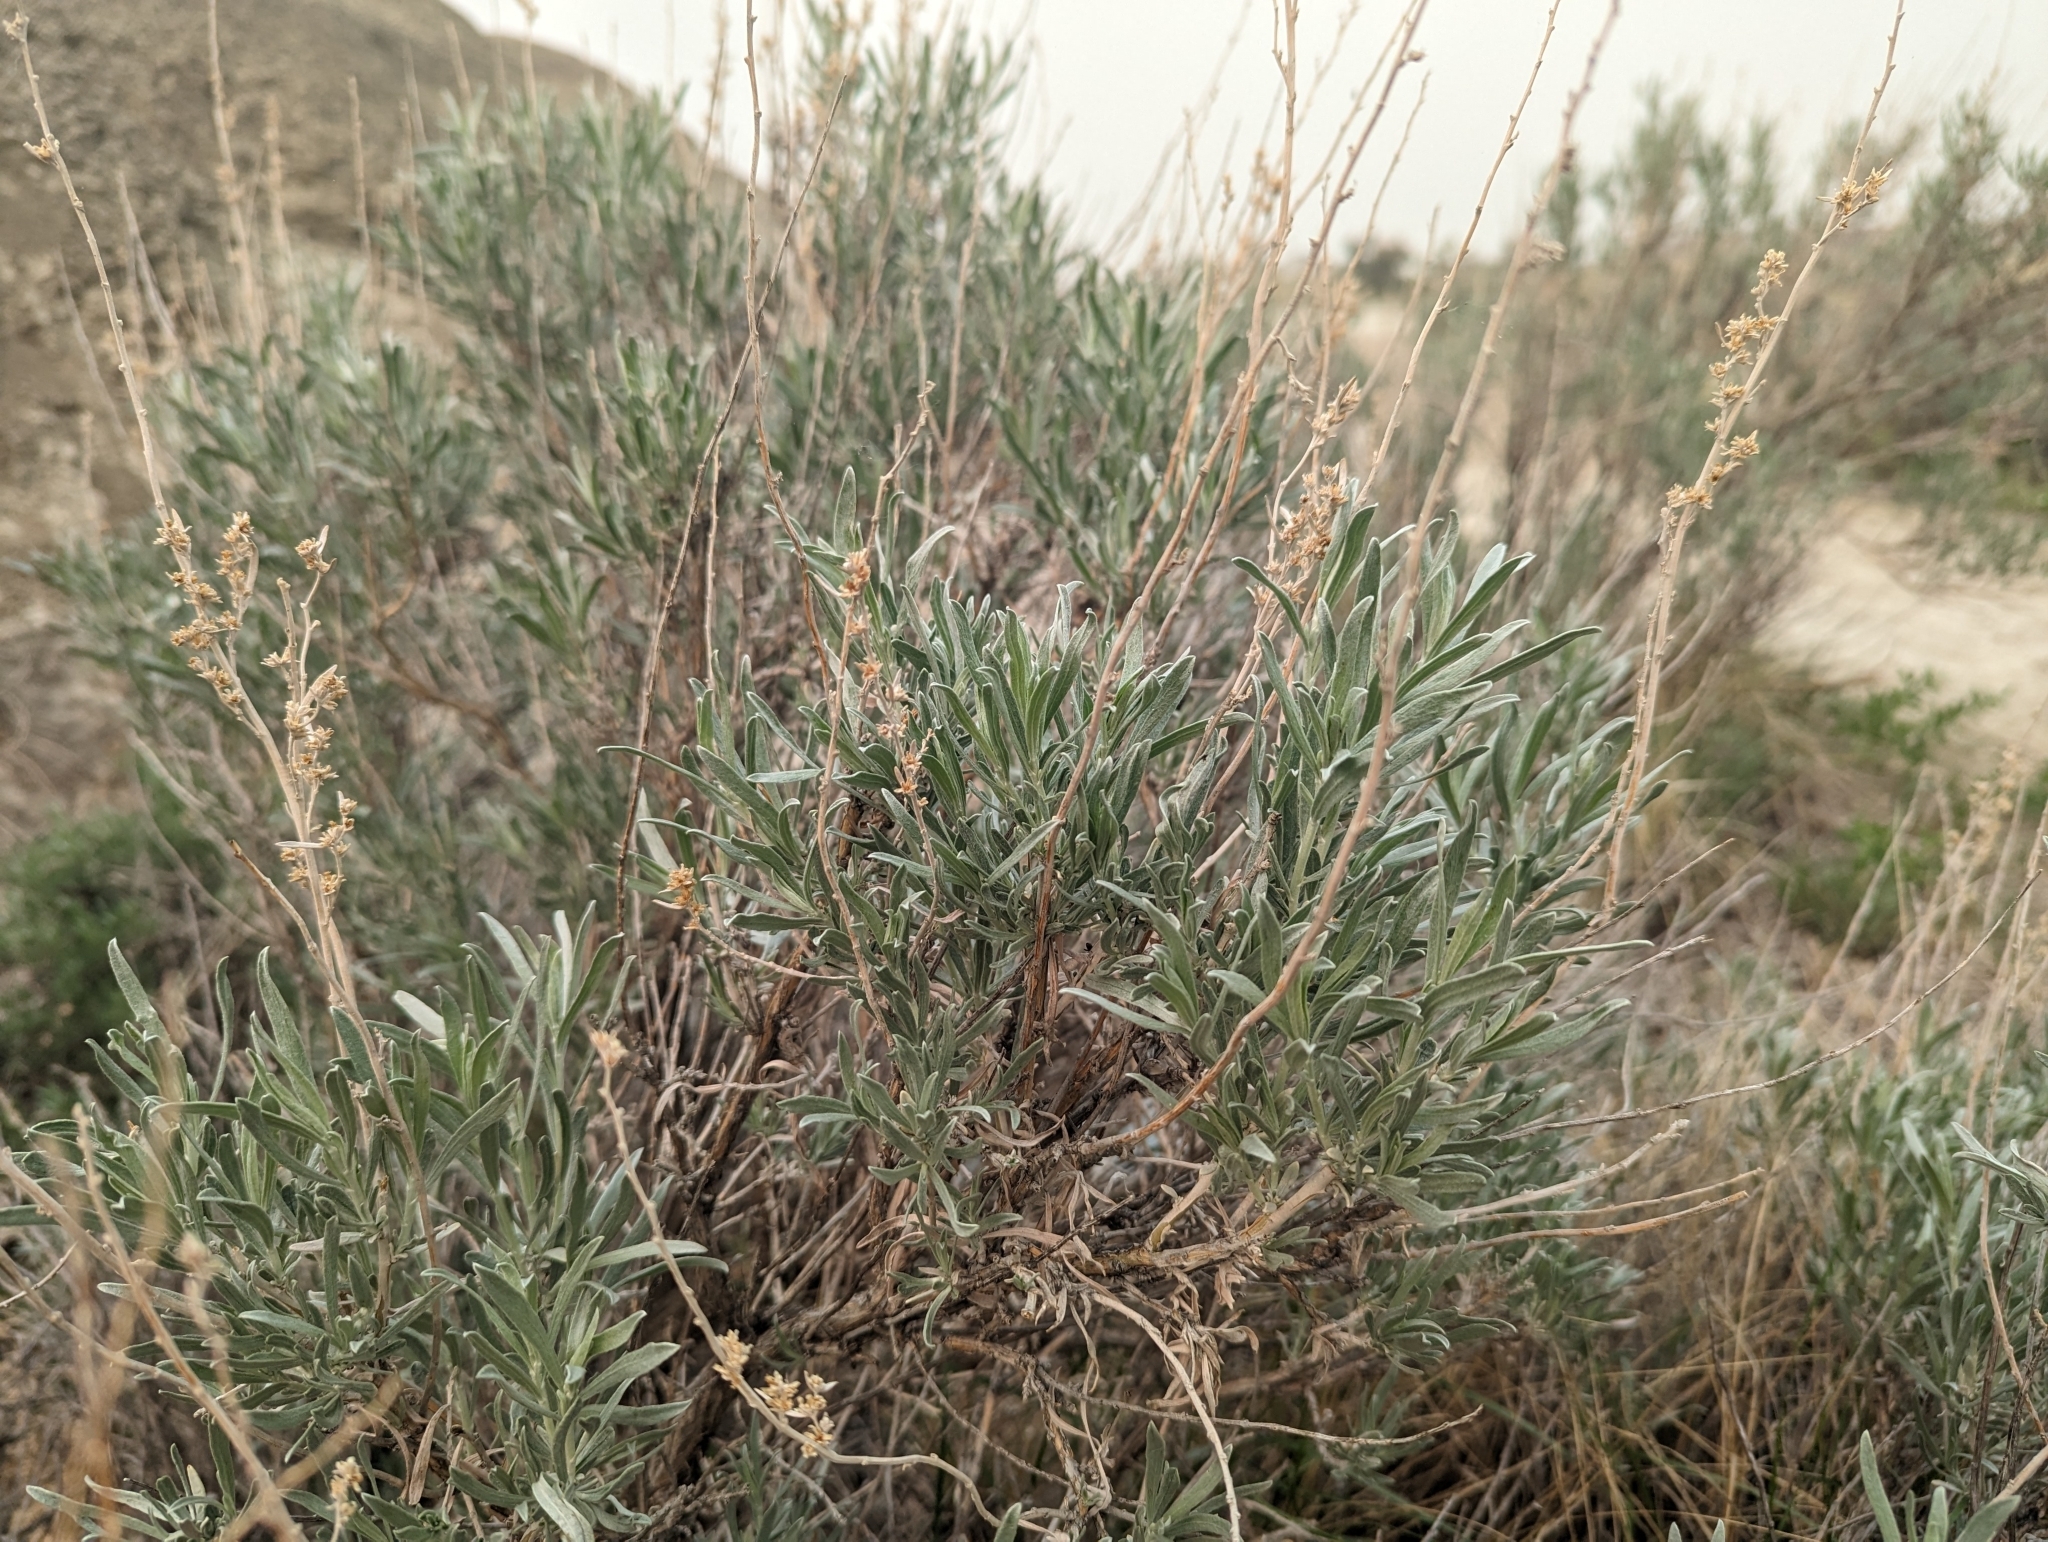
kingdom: Plantae
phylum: Tracheophyta
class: Magnoliopsida
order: Asterales
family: Asteraceae
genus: Artemisia
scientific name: Artemisia cana
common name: Silver sagebrush
